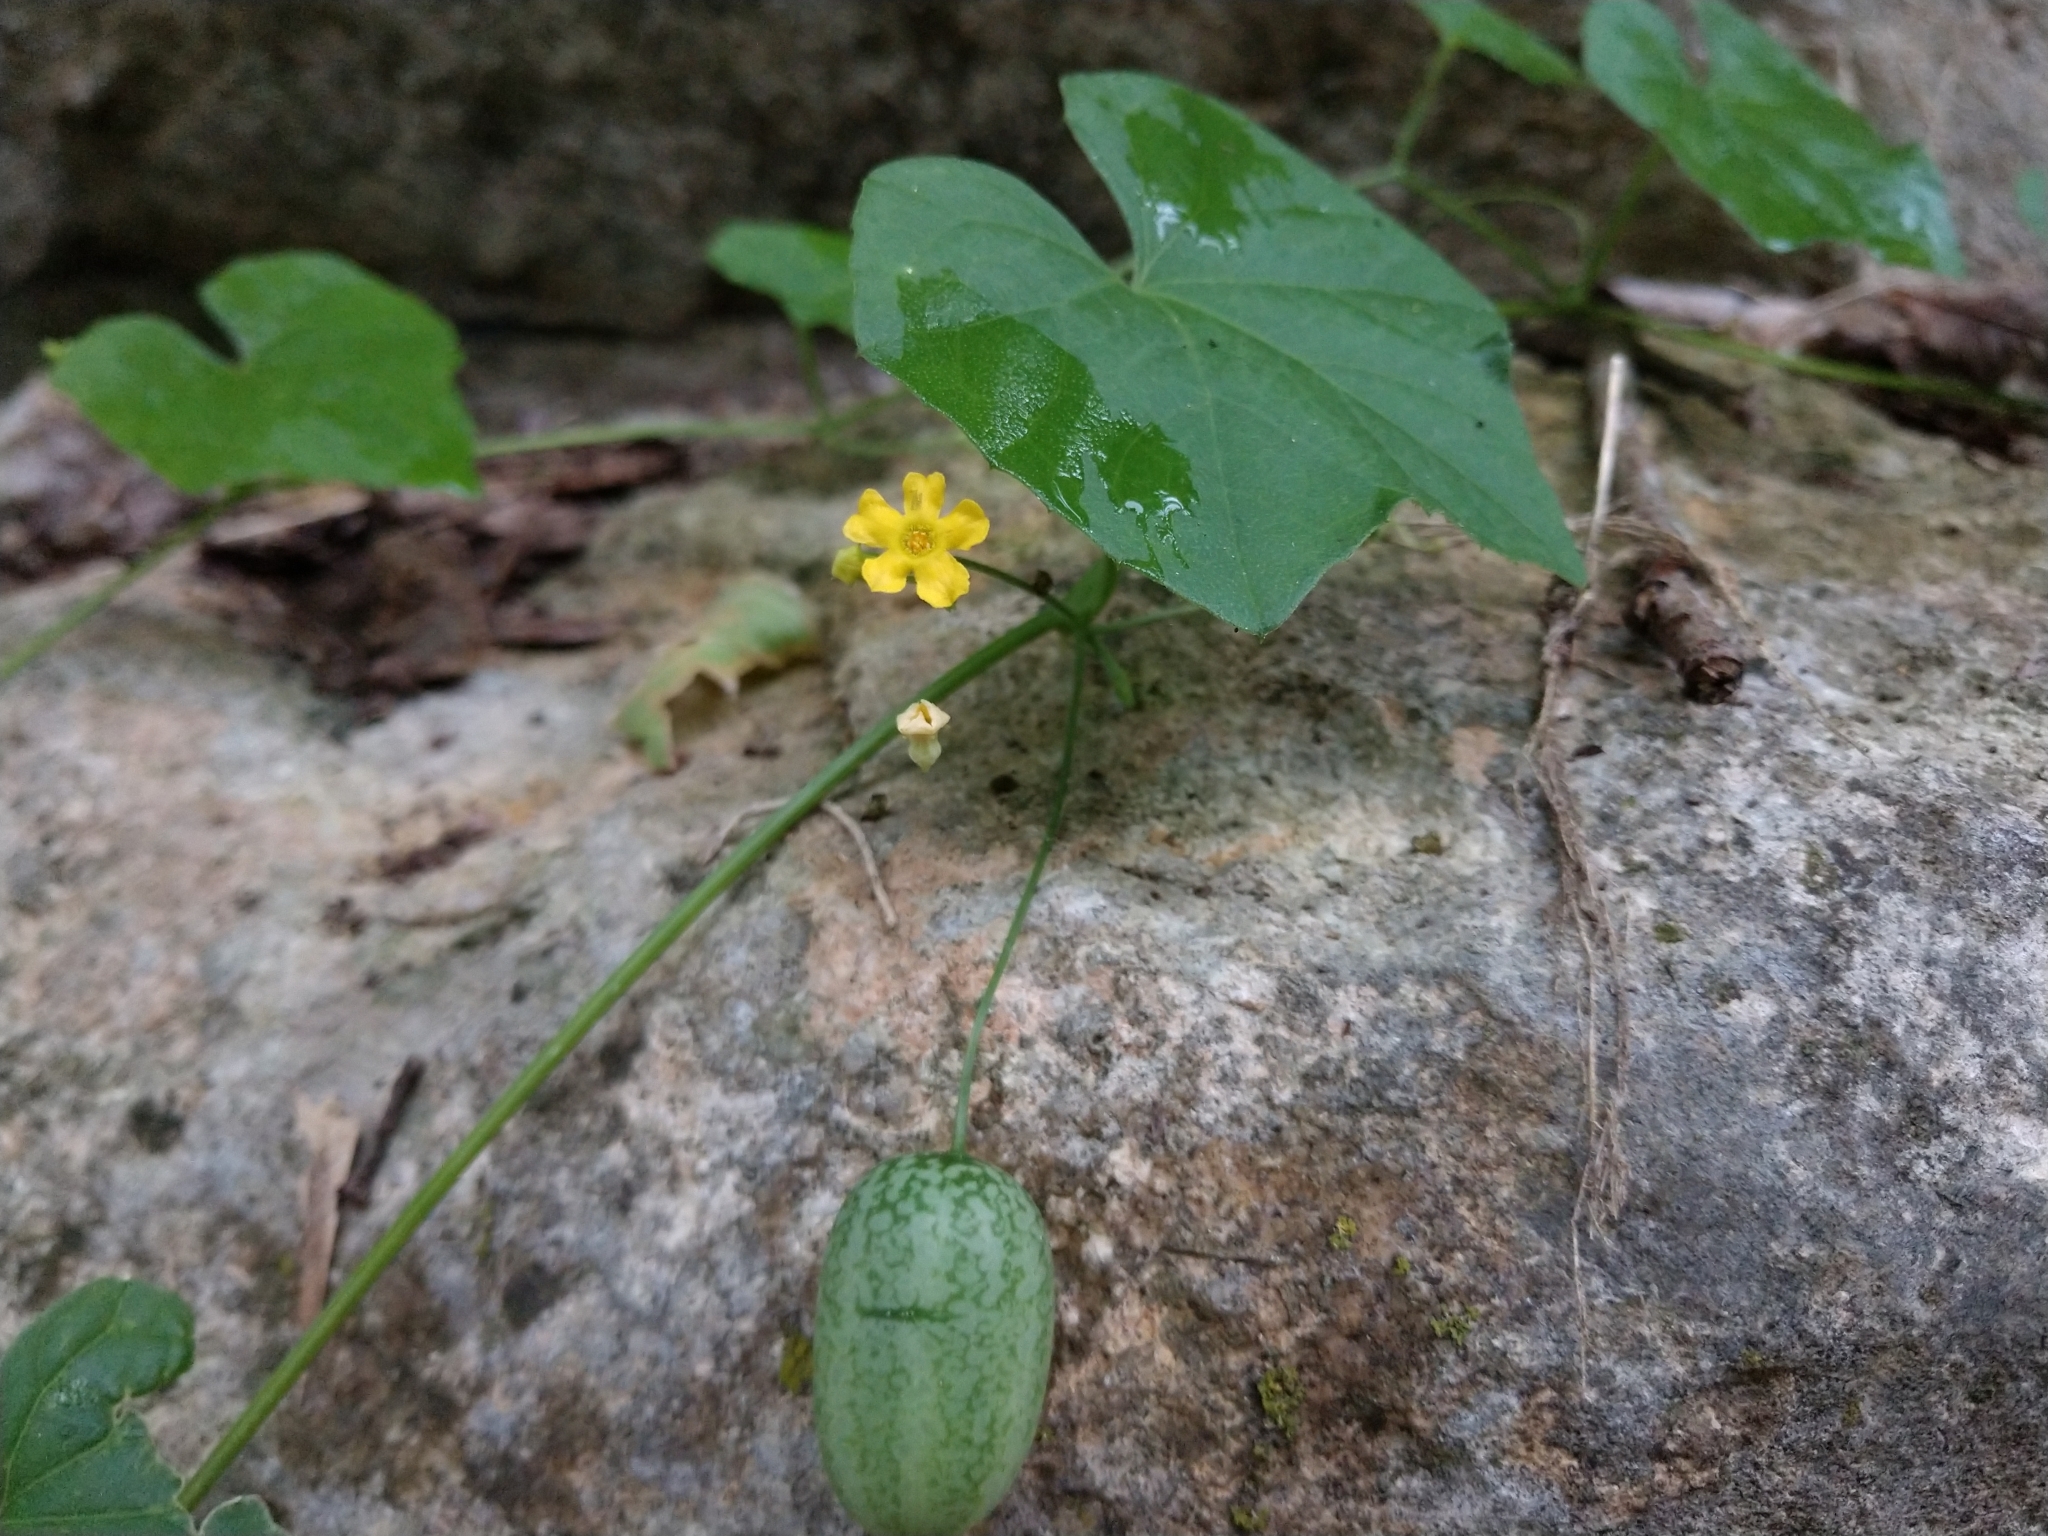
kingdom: Plantae
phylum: Tracheophyta
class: Magnoliopsida
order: Cucurbitales
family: Cucurbitaceae
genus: Melothria
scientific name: Melothria pendula
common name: Creeping-cucumber
